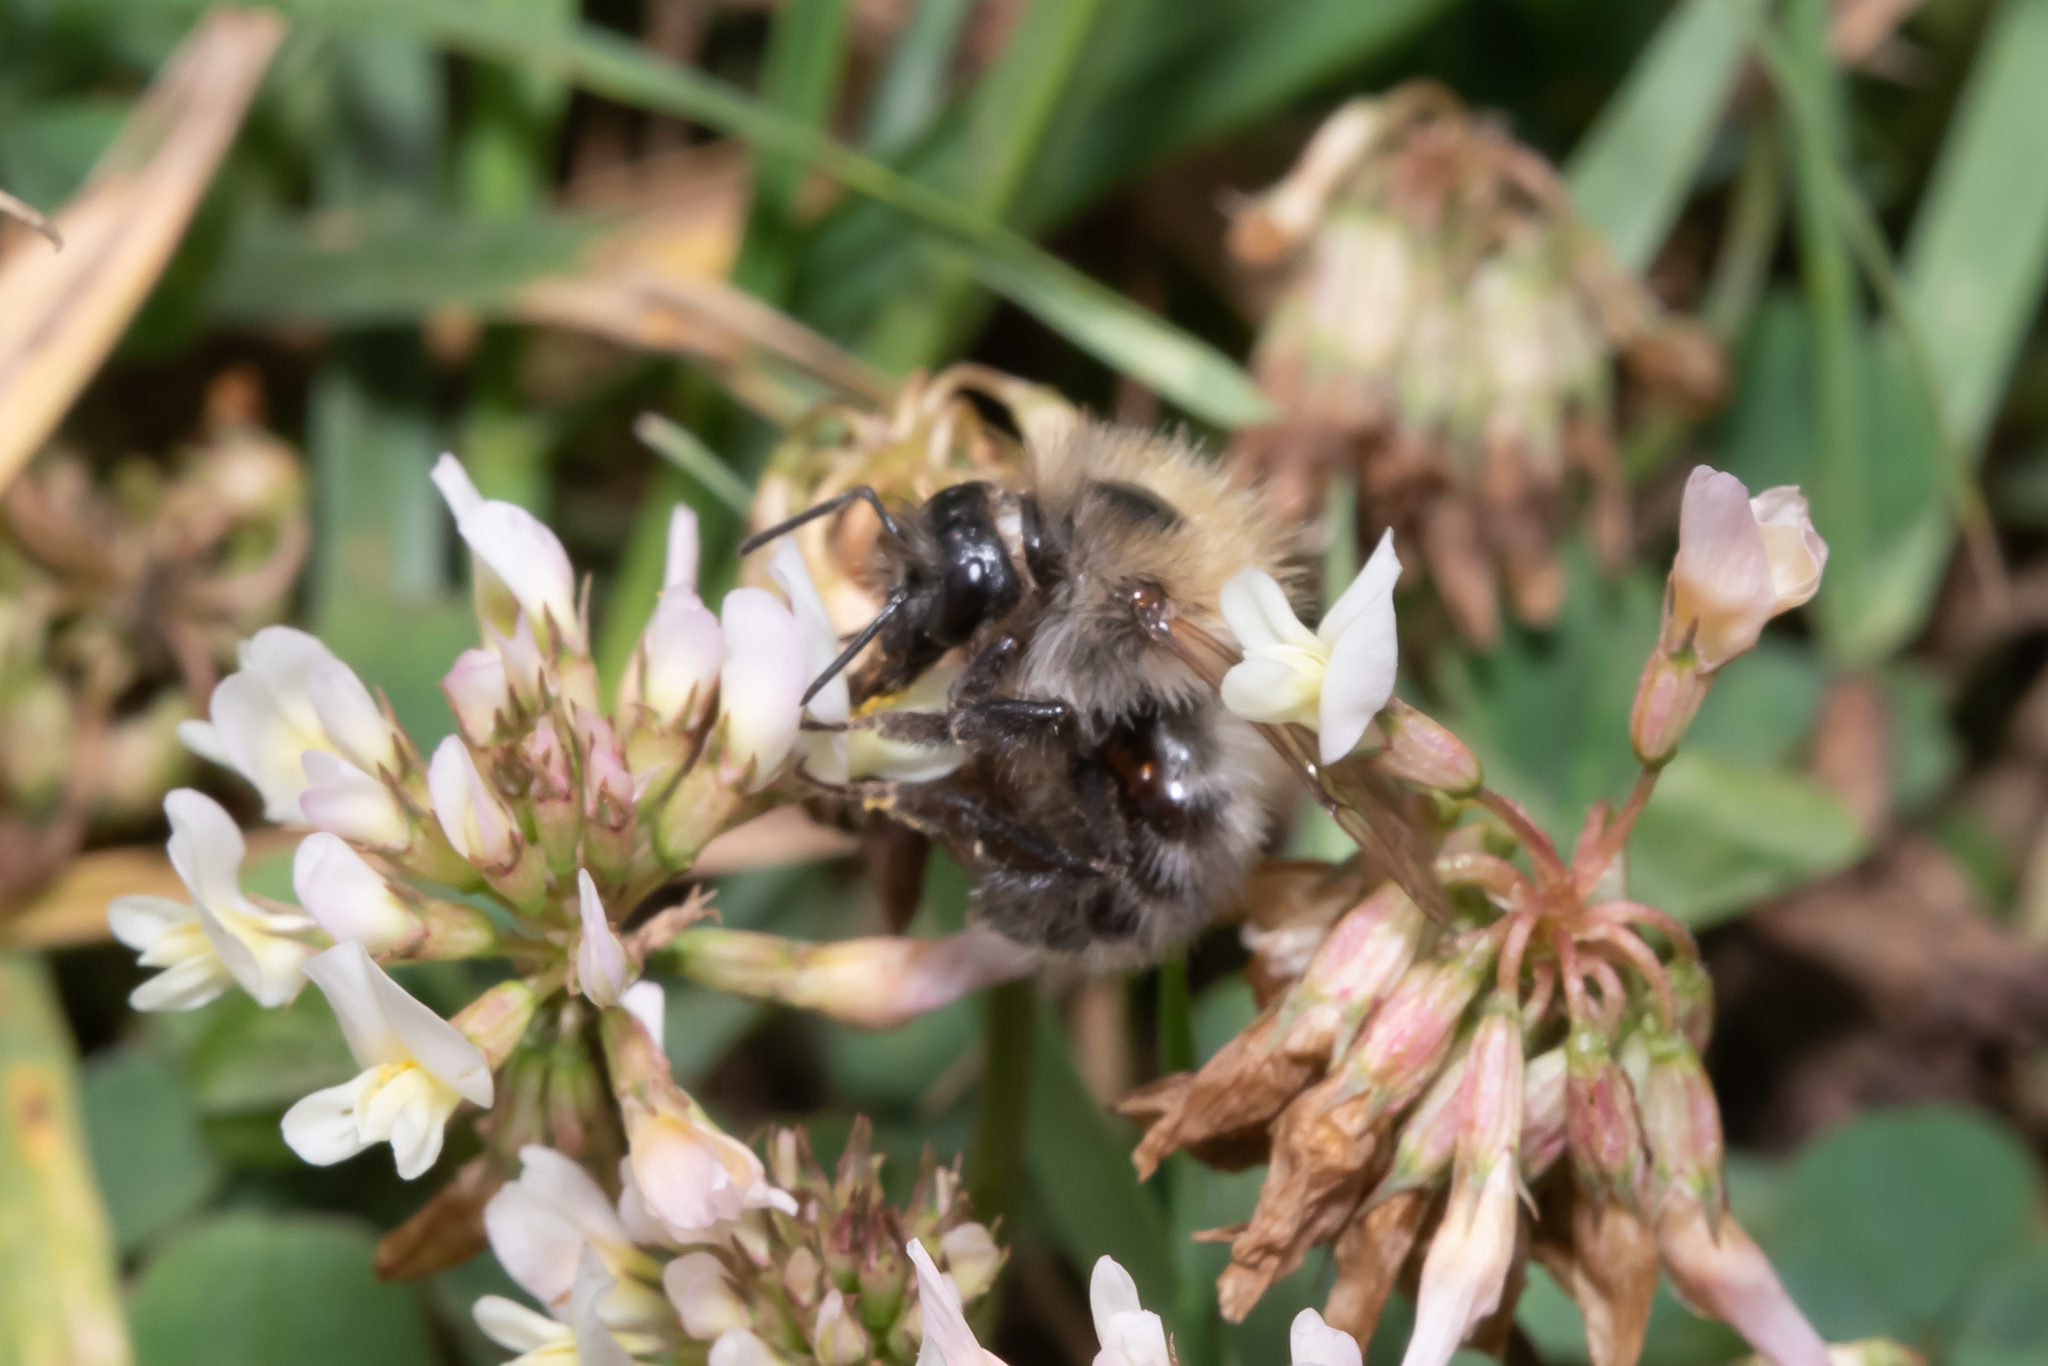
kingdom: Animalia
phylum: Arthropoda
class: Insecta
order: Hymenoptera
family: Apidae
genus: Bombus
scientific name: Bombus pascuorum
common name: Common carder bee
